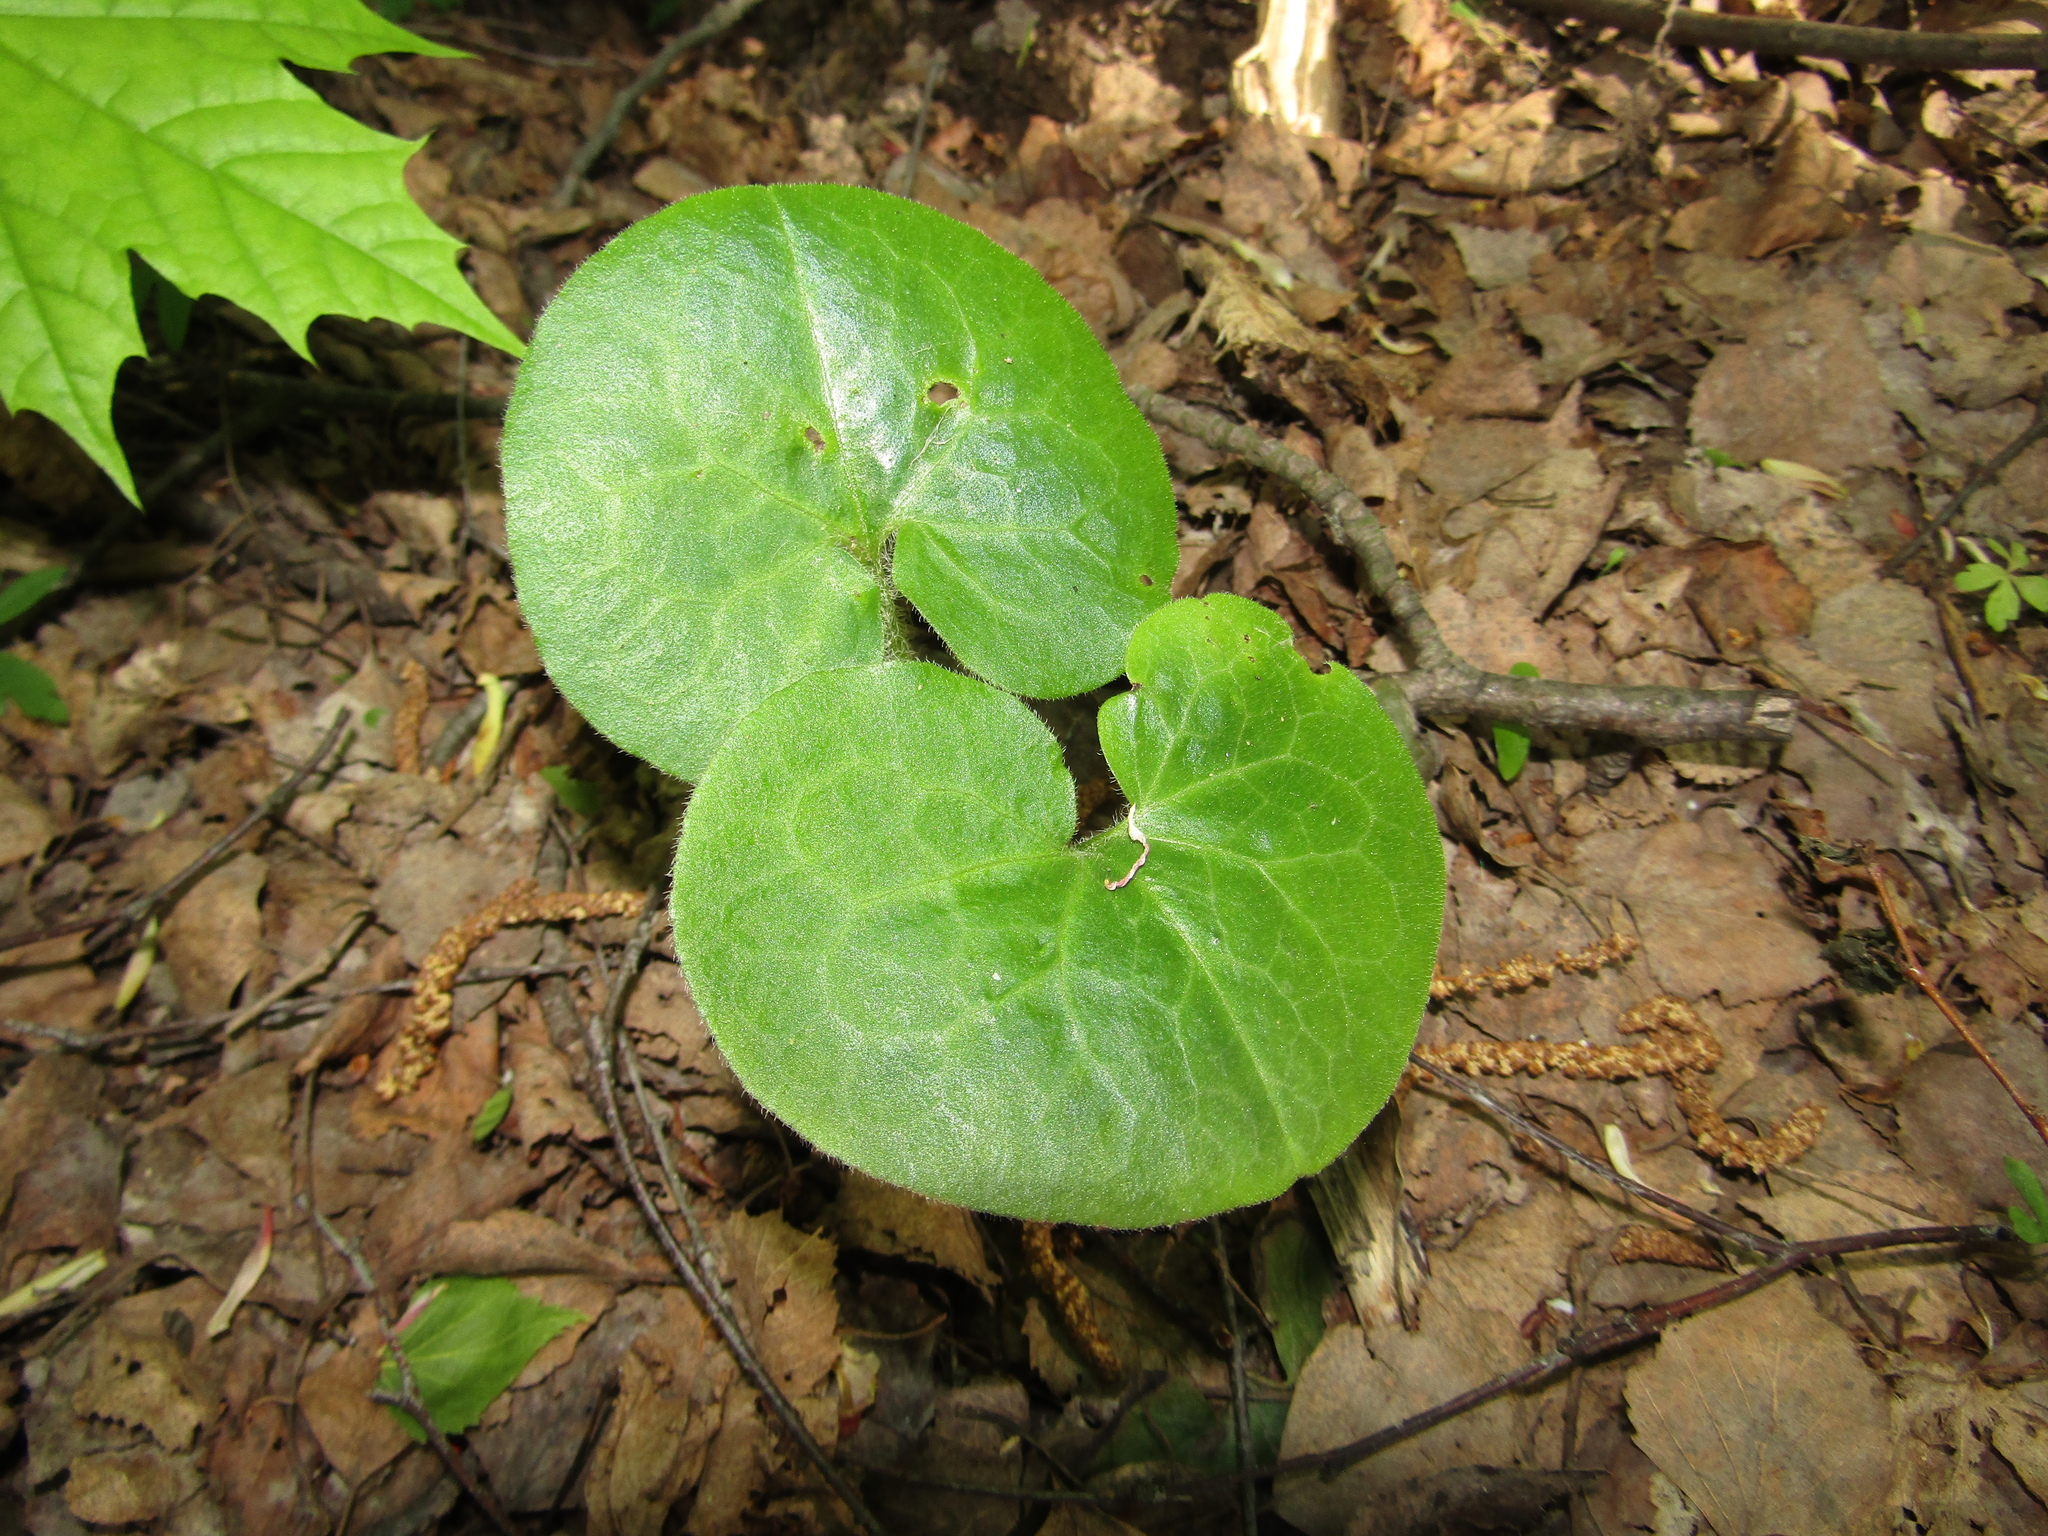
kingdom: Plantae
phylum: Tracheophyta
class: Magnoliopsida
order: Piperales
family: Aristolochiaceae
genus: Asarum
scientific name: Asarum europaeum
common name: Asarabacca
